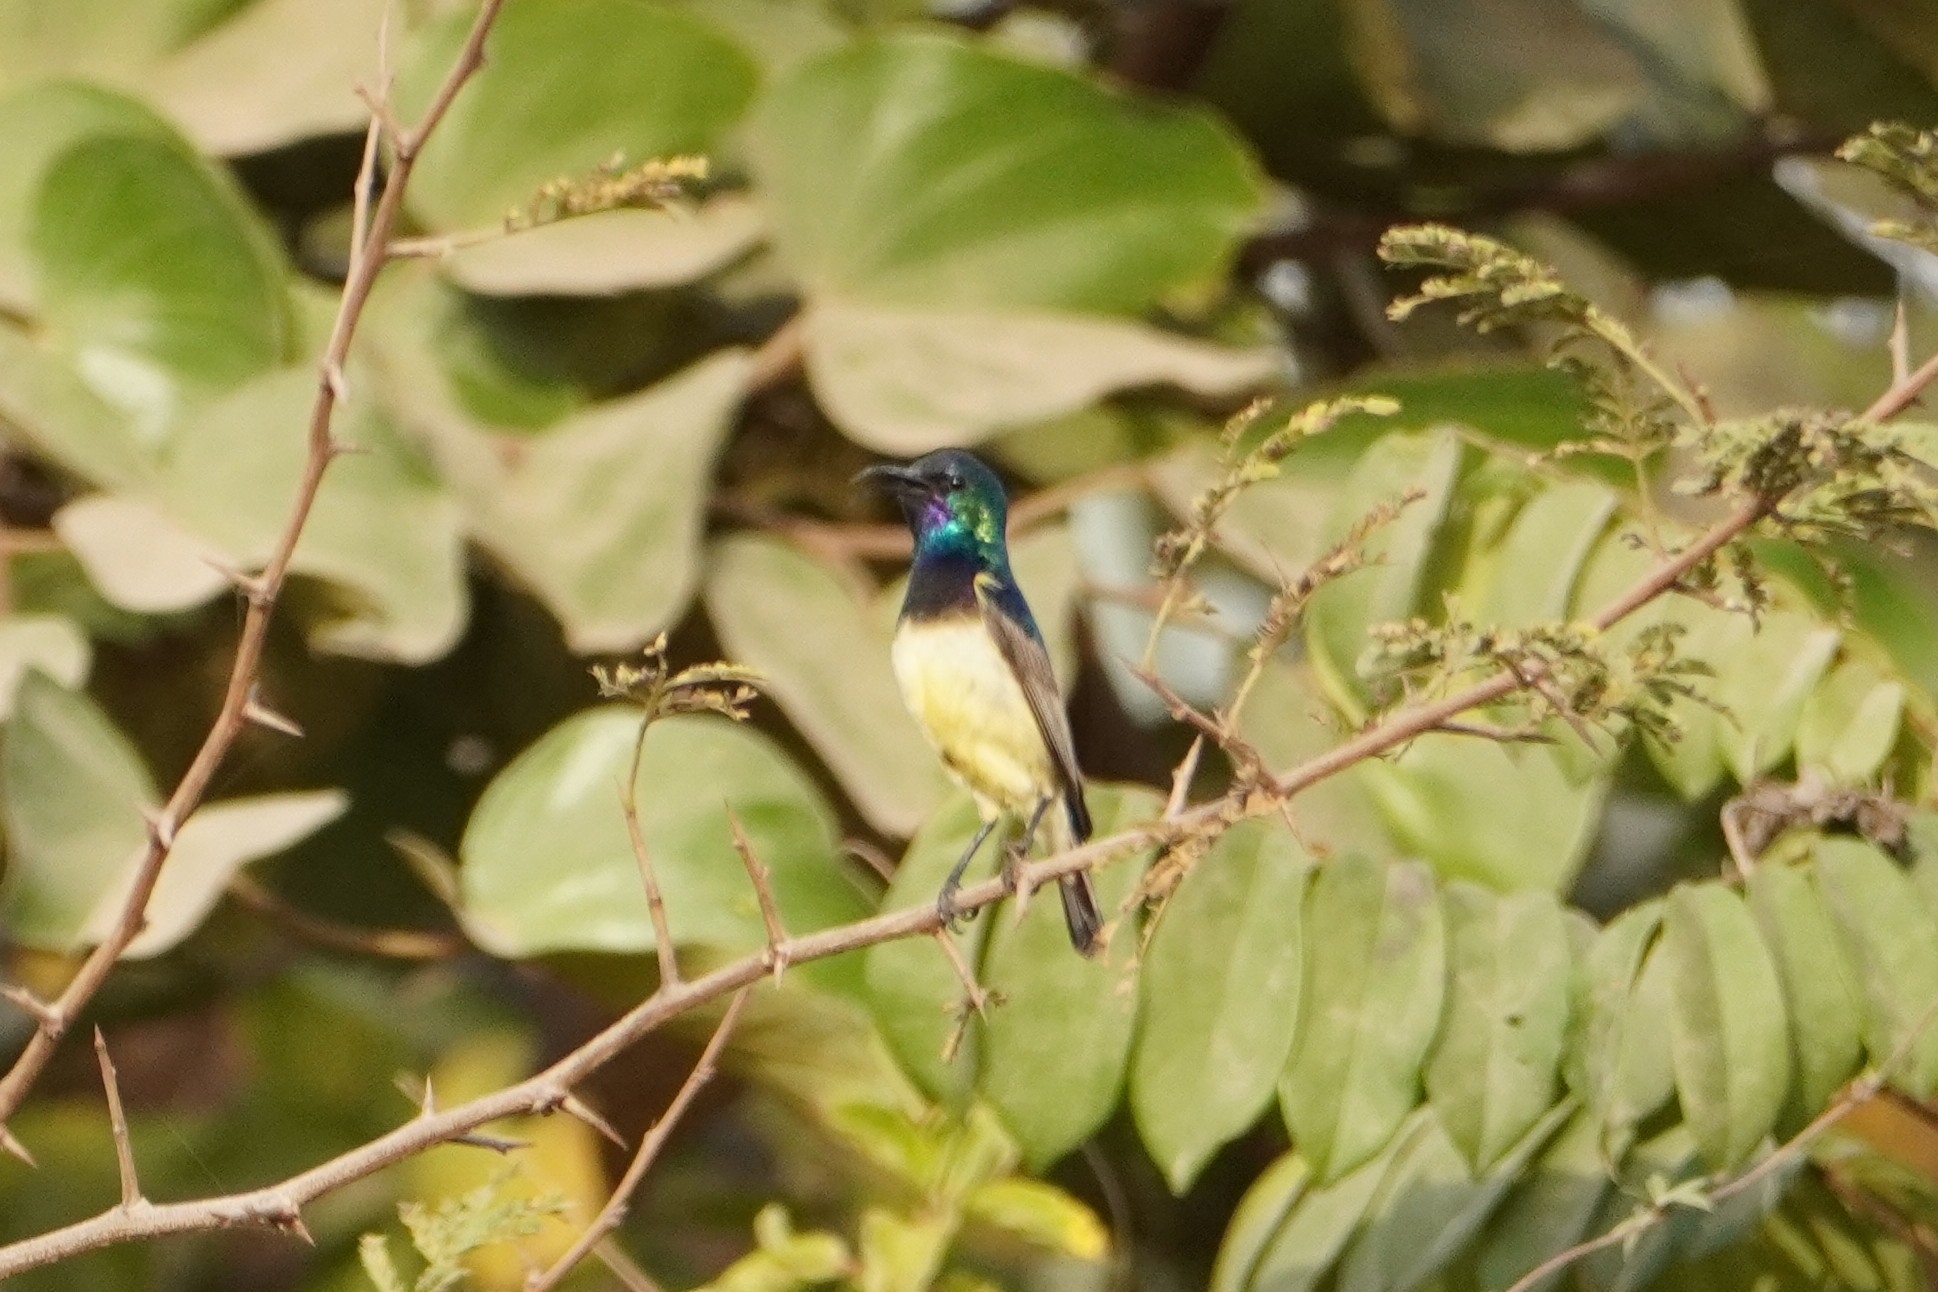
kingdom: Animalia
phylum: Chordata
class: Aves
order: Passeriformes
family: Nectariniidae
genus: Cinnyris
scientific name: Cinnyris venustus
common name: Variable sunbird
